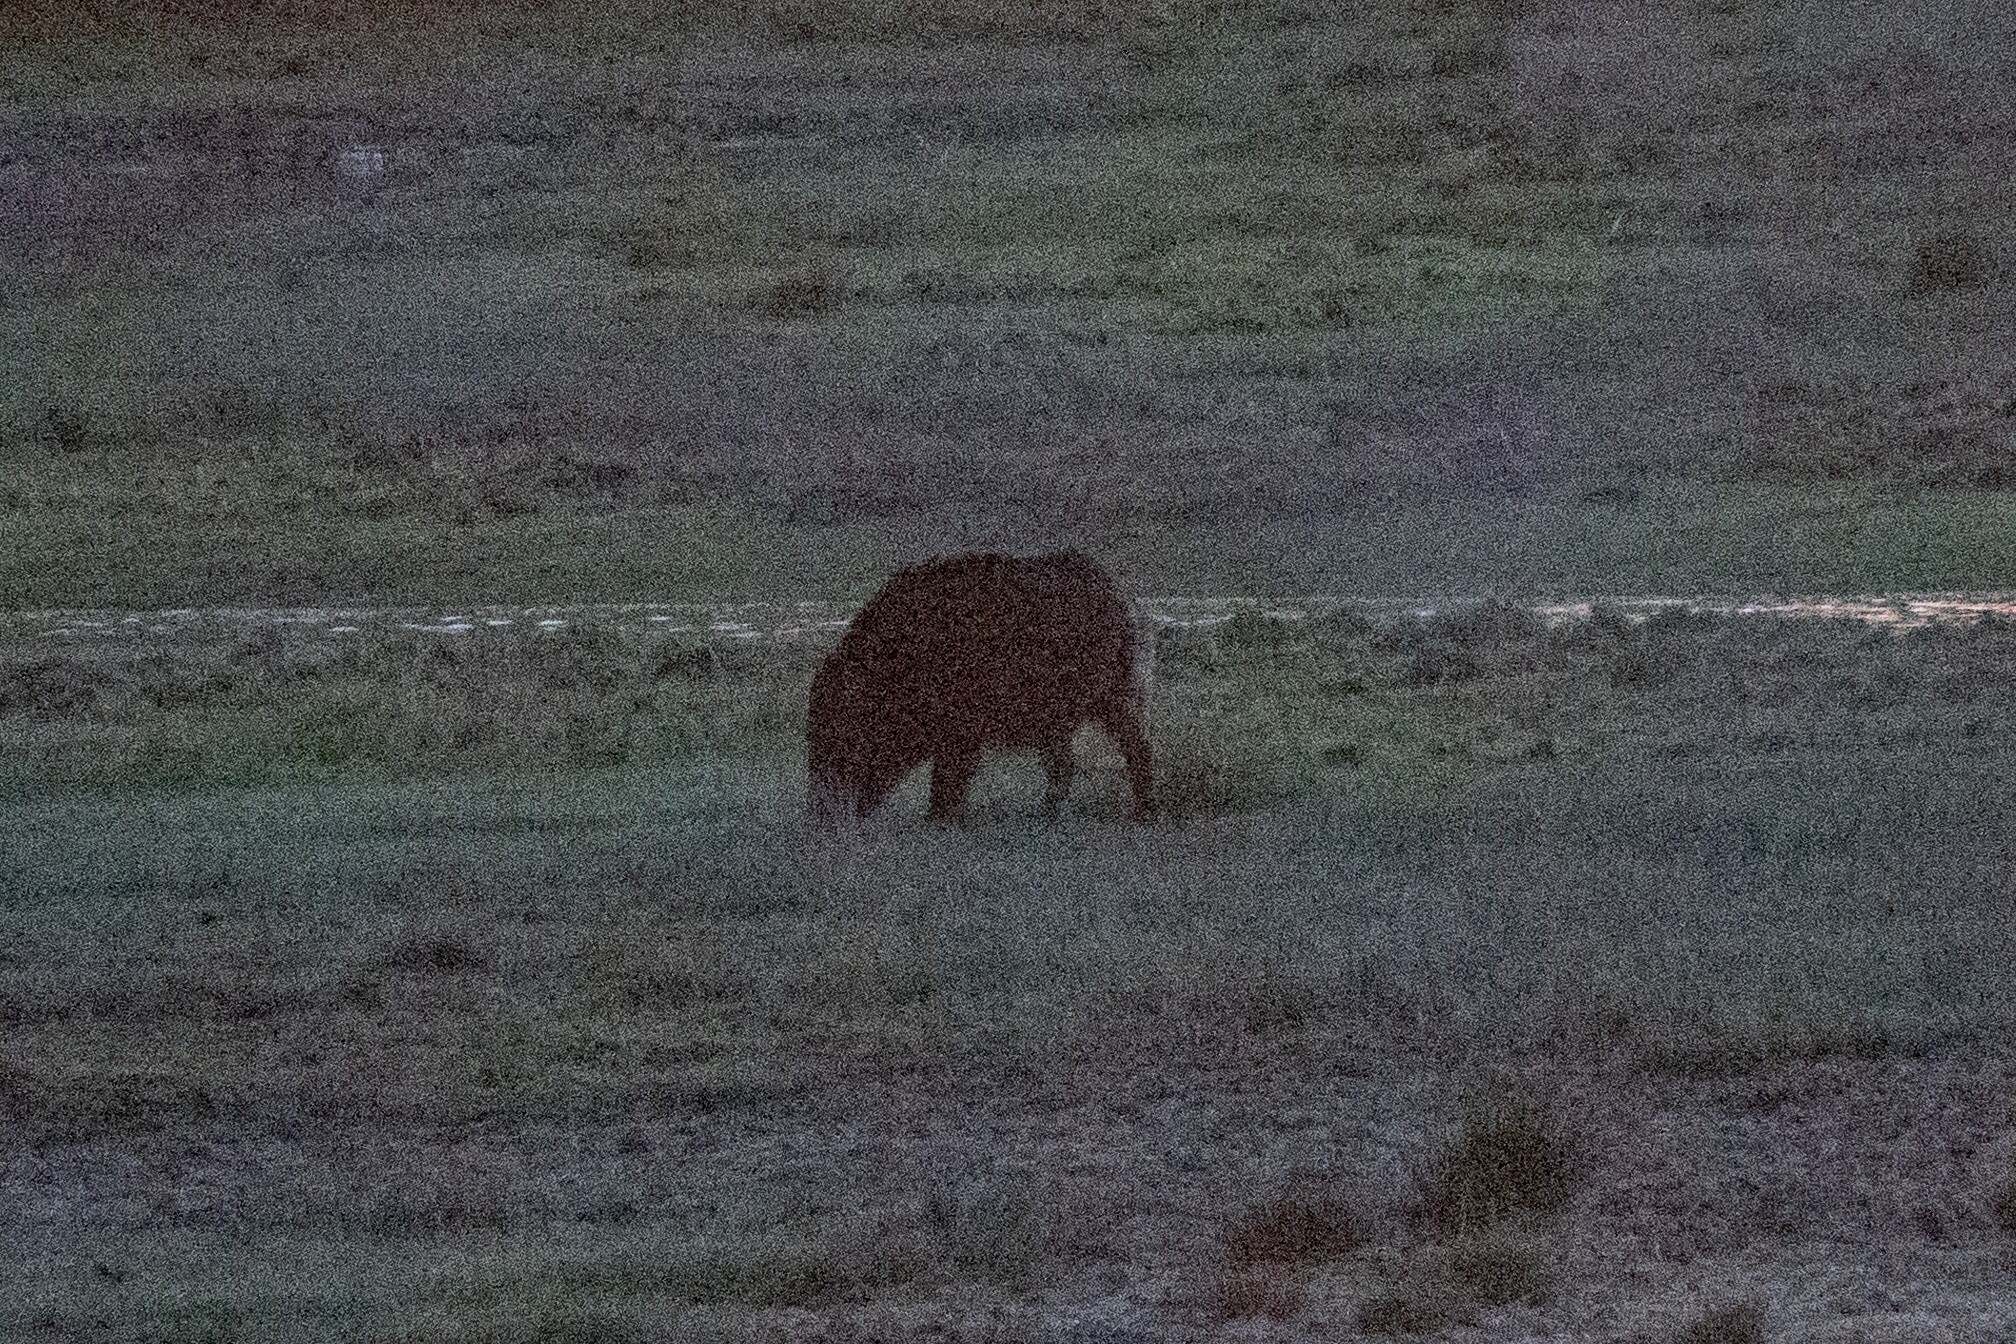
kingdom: Animalia
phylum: Chordata
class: Mammalia
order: Artiodactyla
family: Suidae
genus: Sus
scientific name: Sus scrofa
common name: Wild boar
